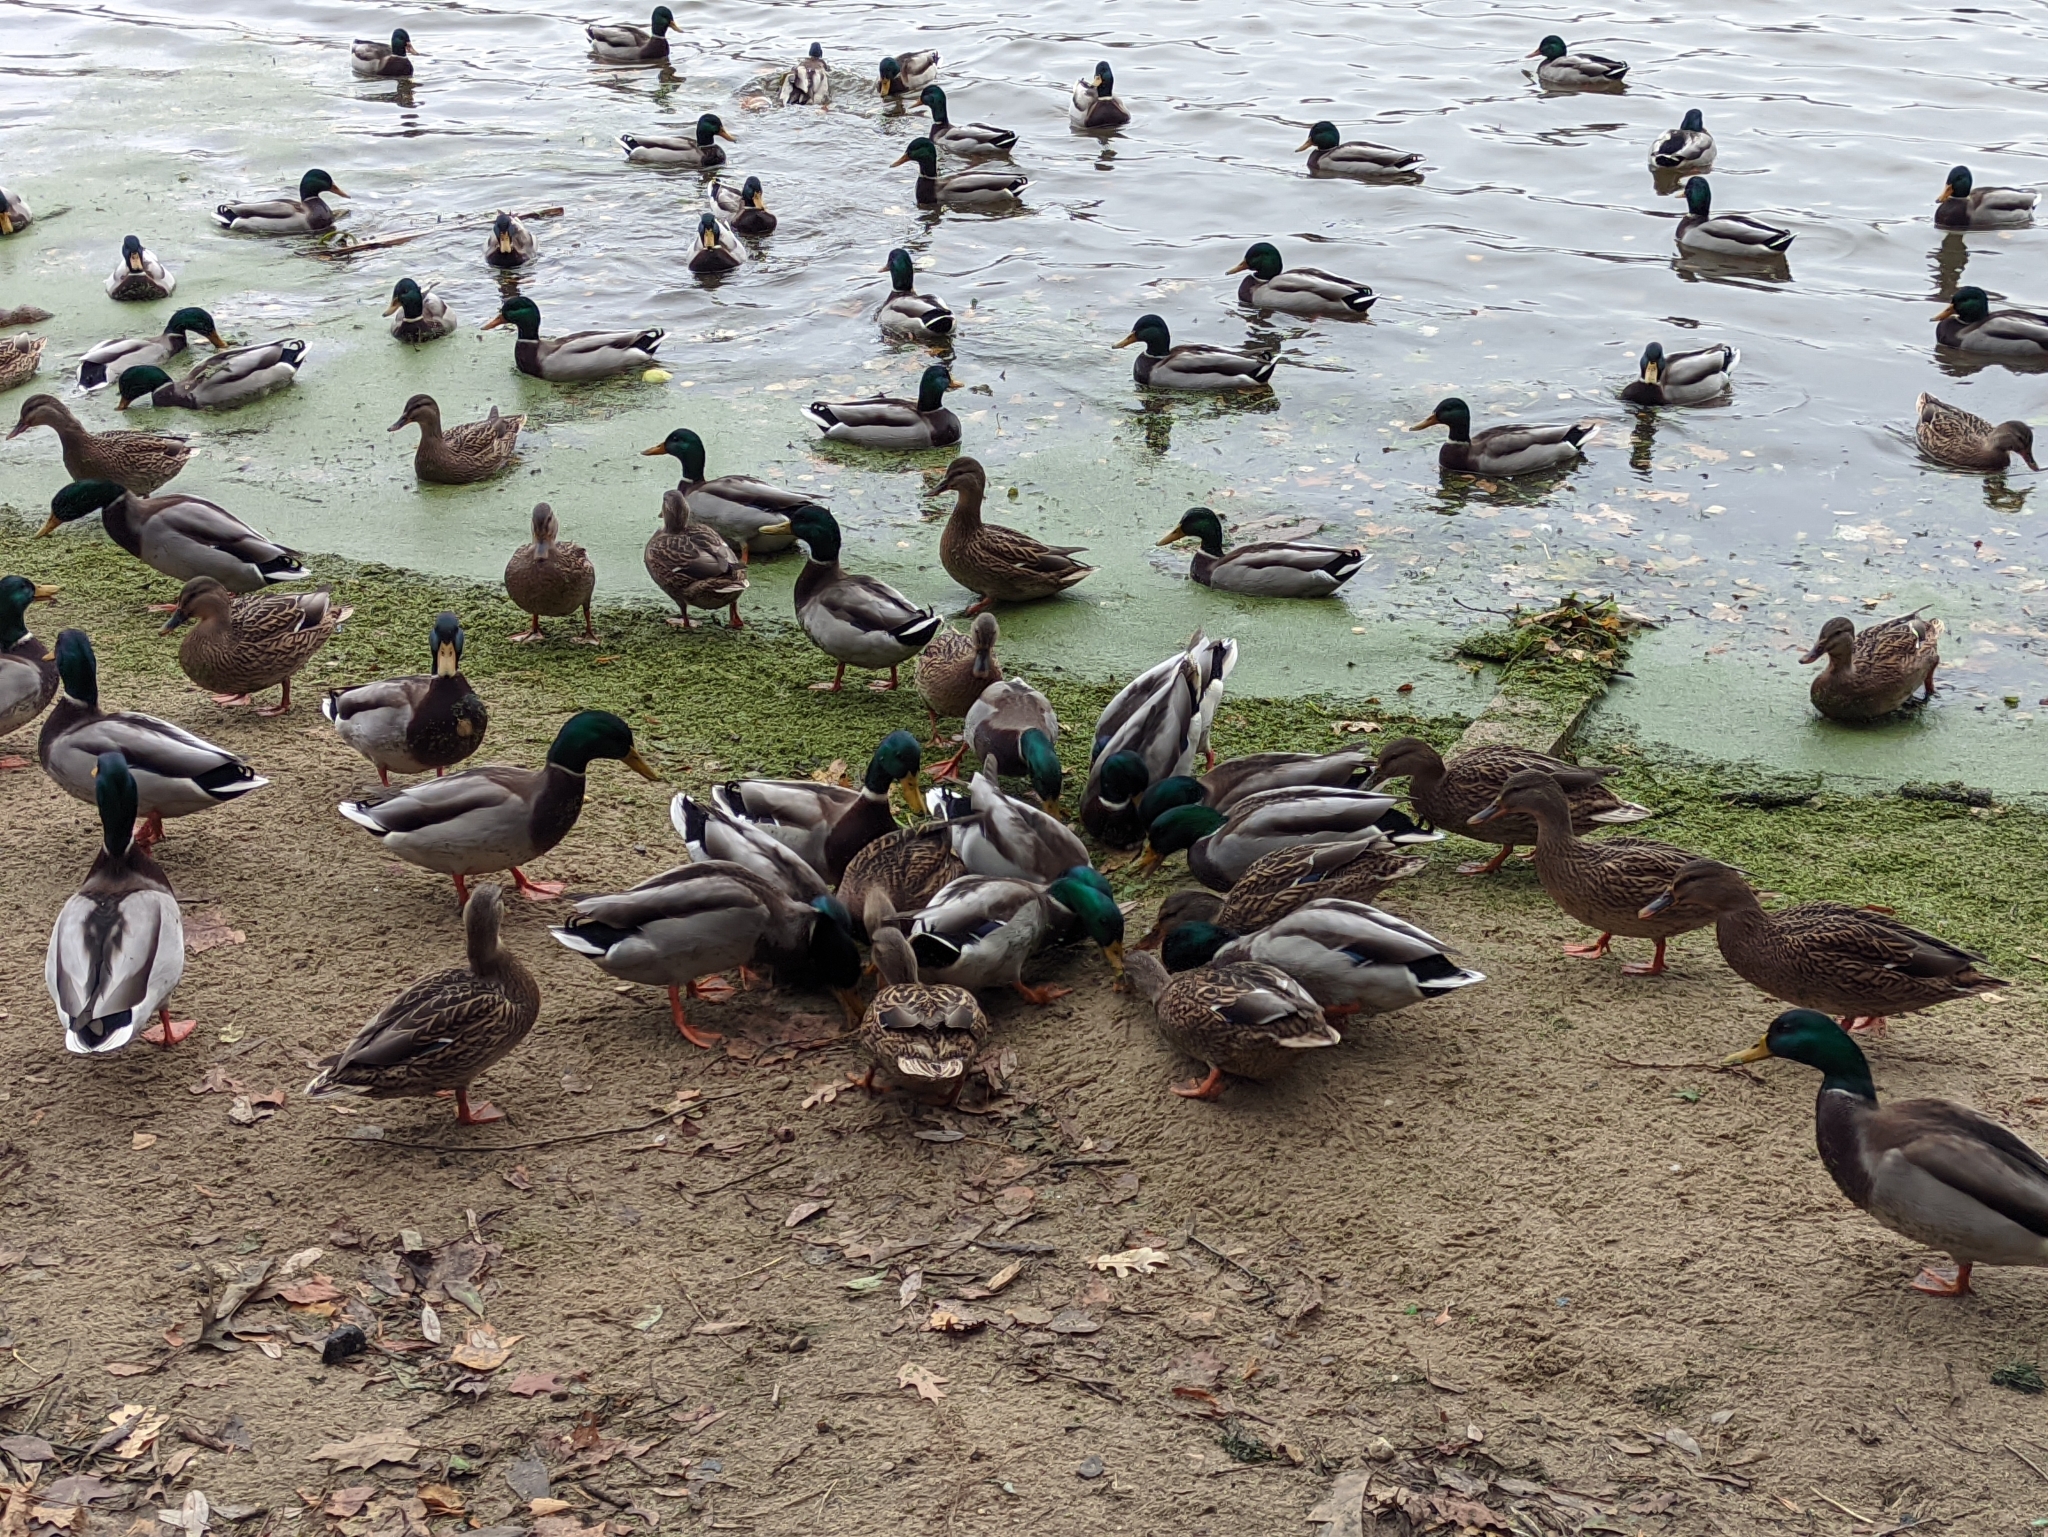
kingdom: Animalia
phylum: Chordata
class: Aves
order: Anseriformes
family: Anatidae
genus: Anas
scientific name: Anas platyrhynchos
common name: Mallard
